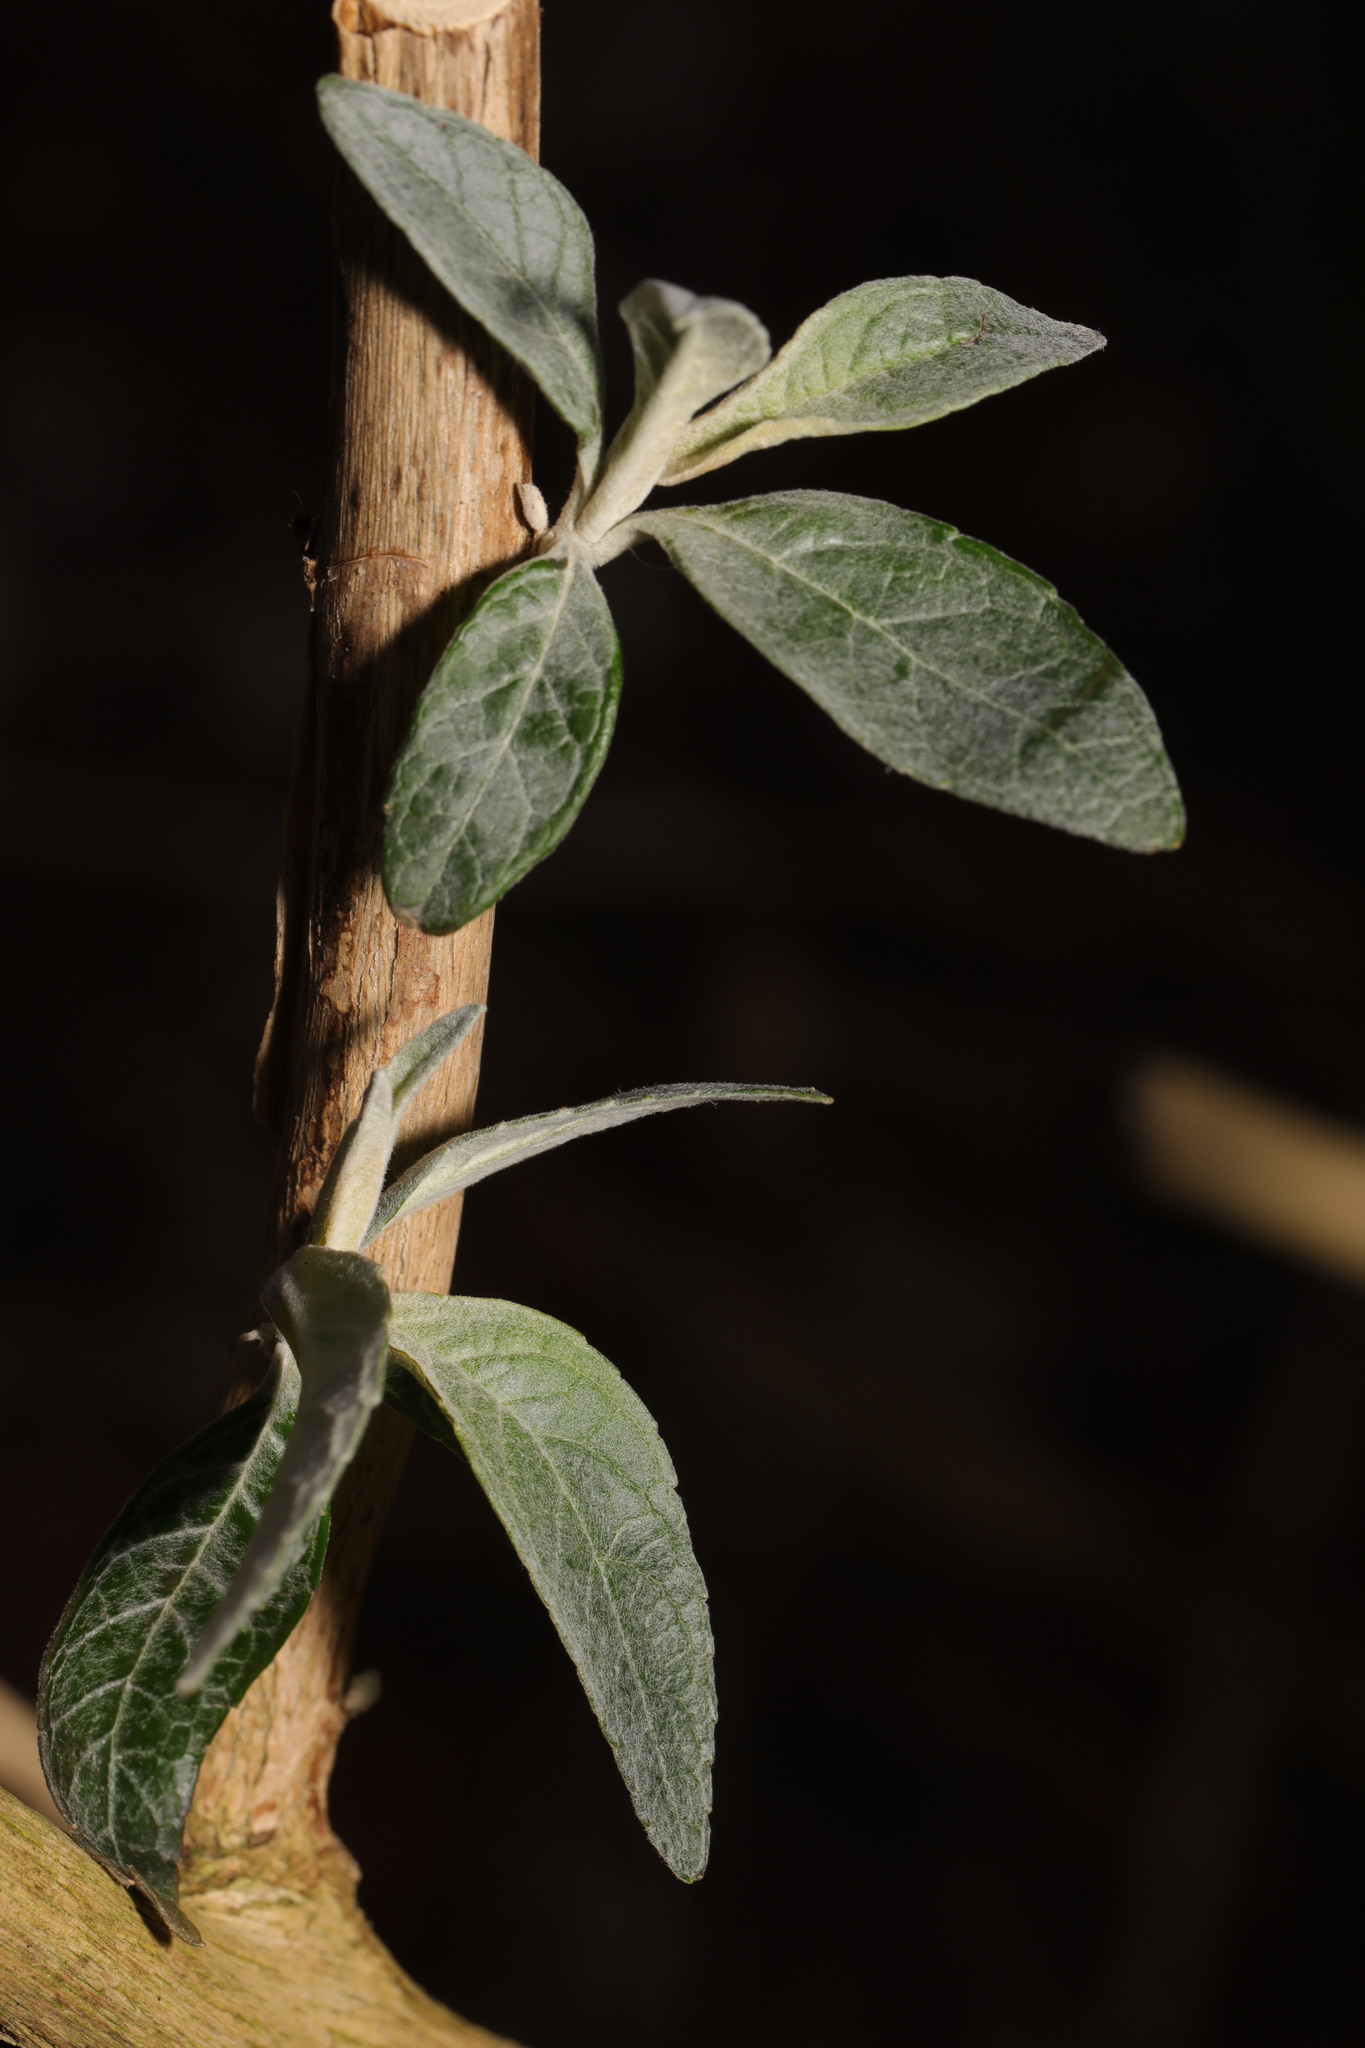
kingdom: Plantae
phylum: Tracheophyta
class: Magnoliopsida
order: Lamiales
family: Scrophulariaceae
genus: Buddleja
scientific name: Buddleja davidii
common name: Butterfly-bush
